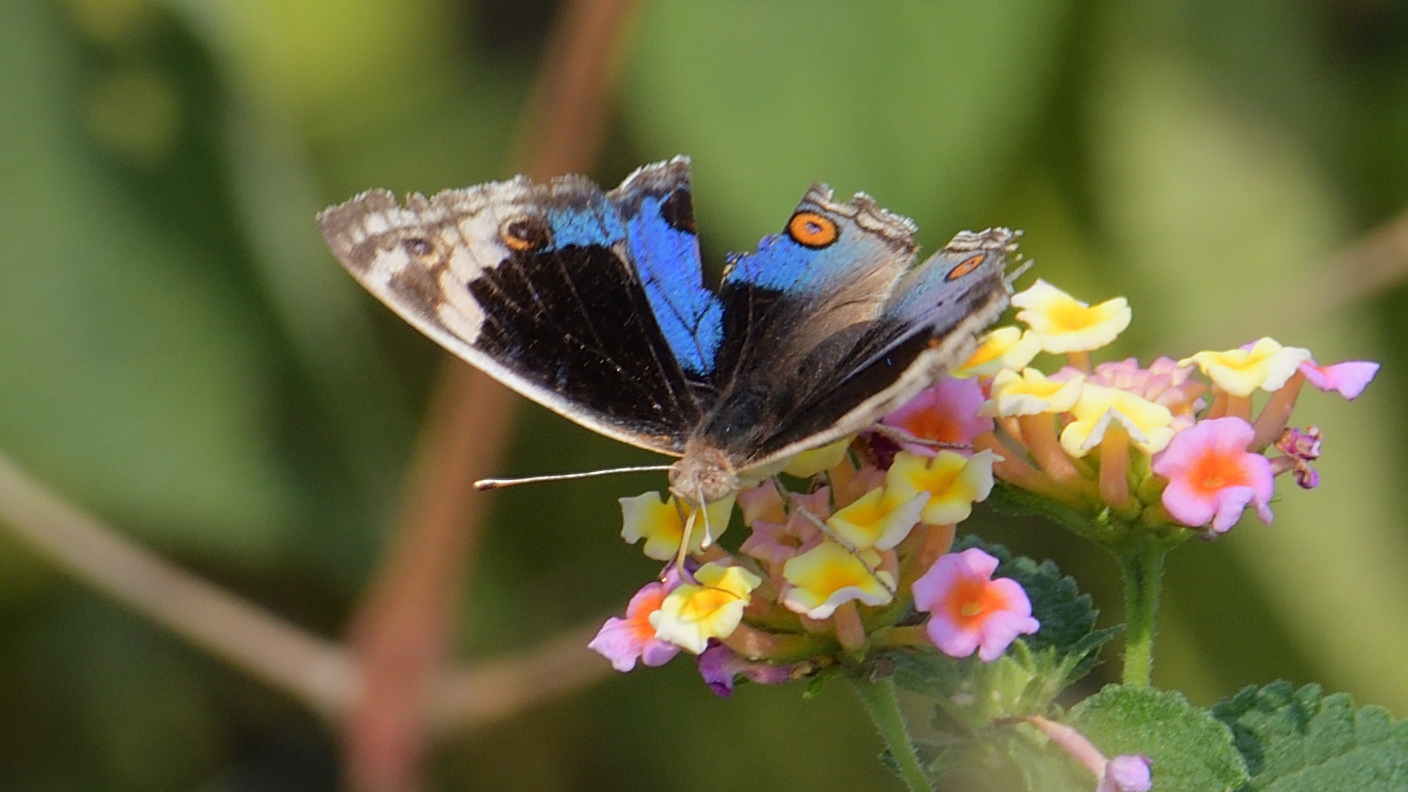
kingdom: Animalia
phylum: Arthropoda
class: Insecta
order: Lepidoptera
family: Nymphalidae
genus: Junonia
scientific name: Junonia orithya
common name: Blue pansy
